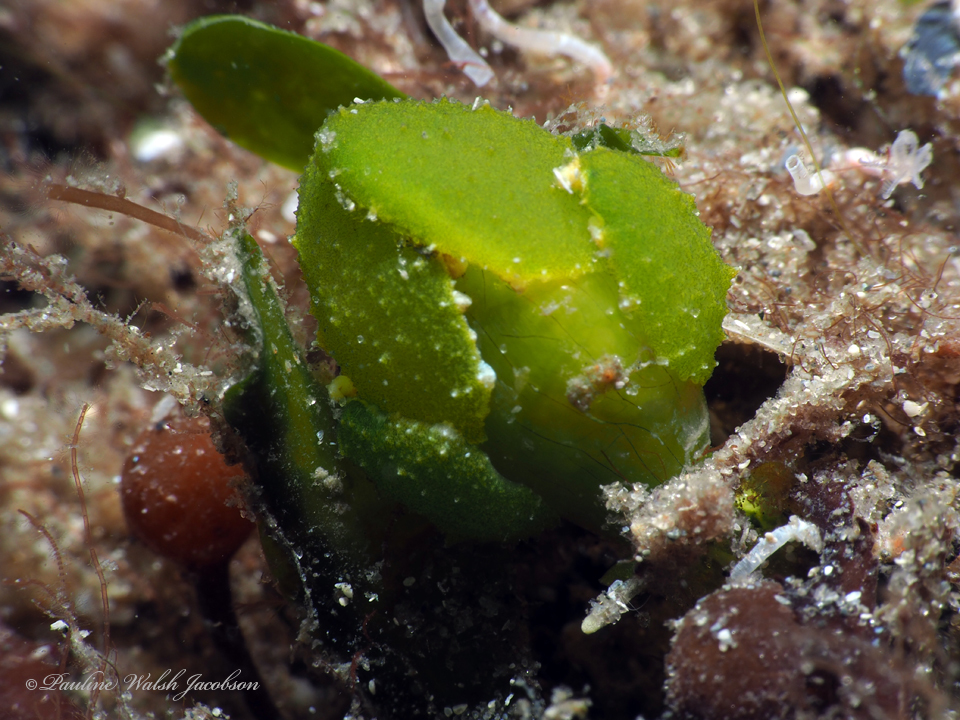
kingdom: Animalia
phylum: Mollusca
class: Gastropoda
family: Oxynoidae
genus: Lobiger
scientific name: Lobiger souverbii
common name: Lined-shell sea slug
